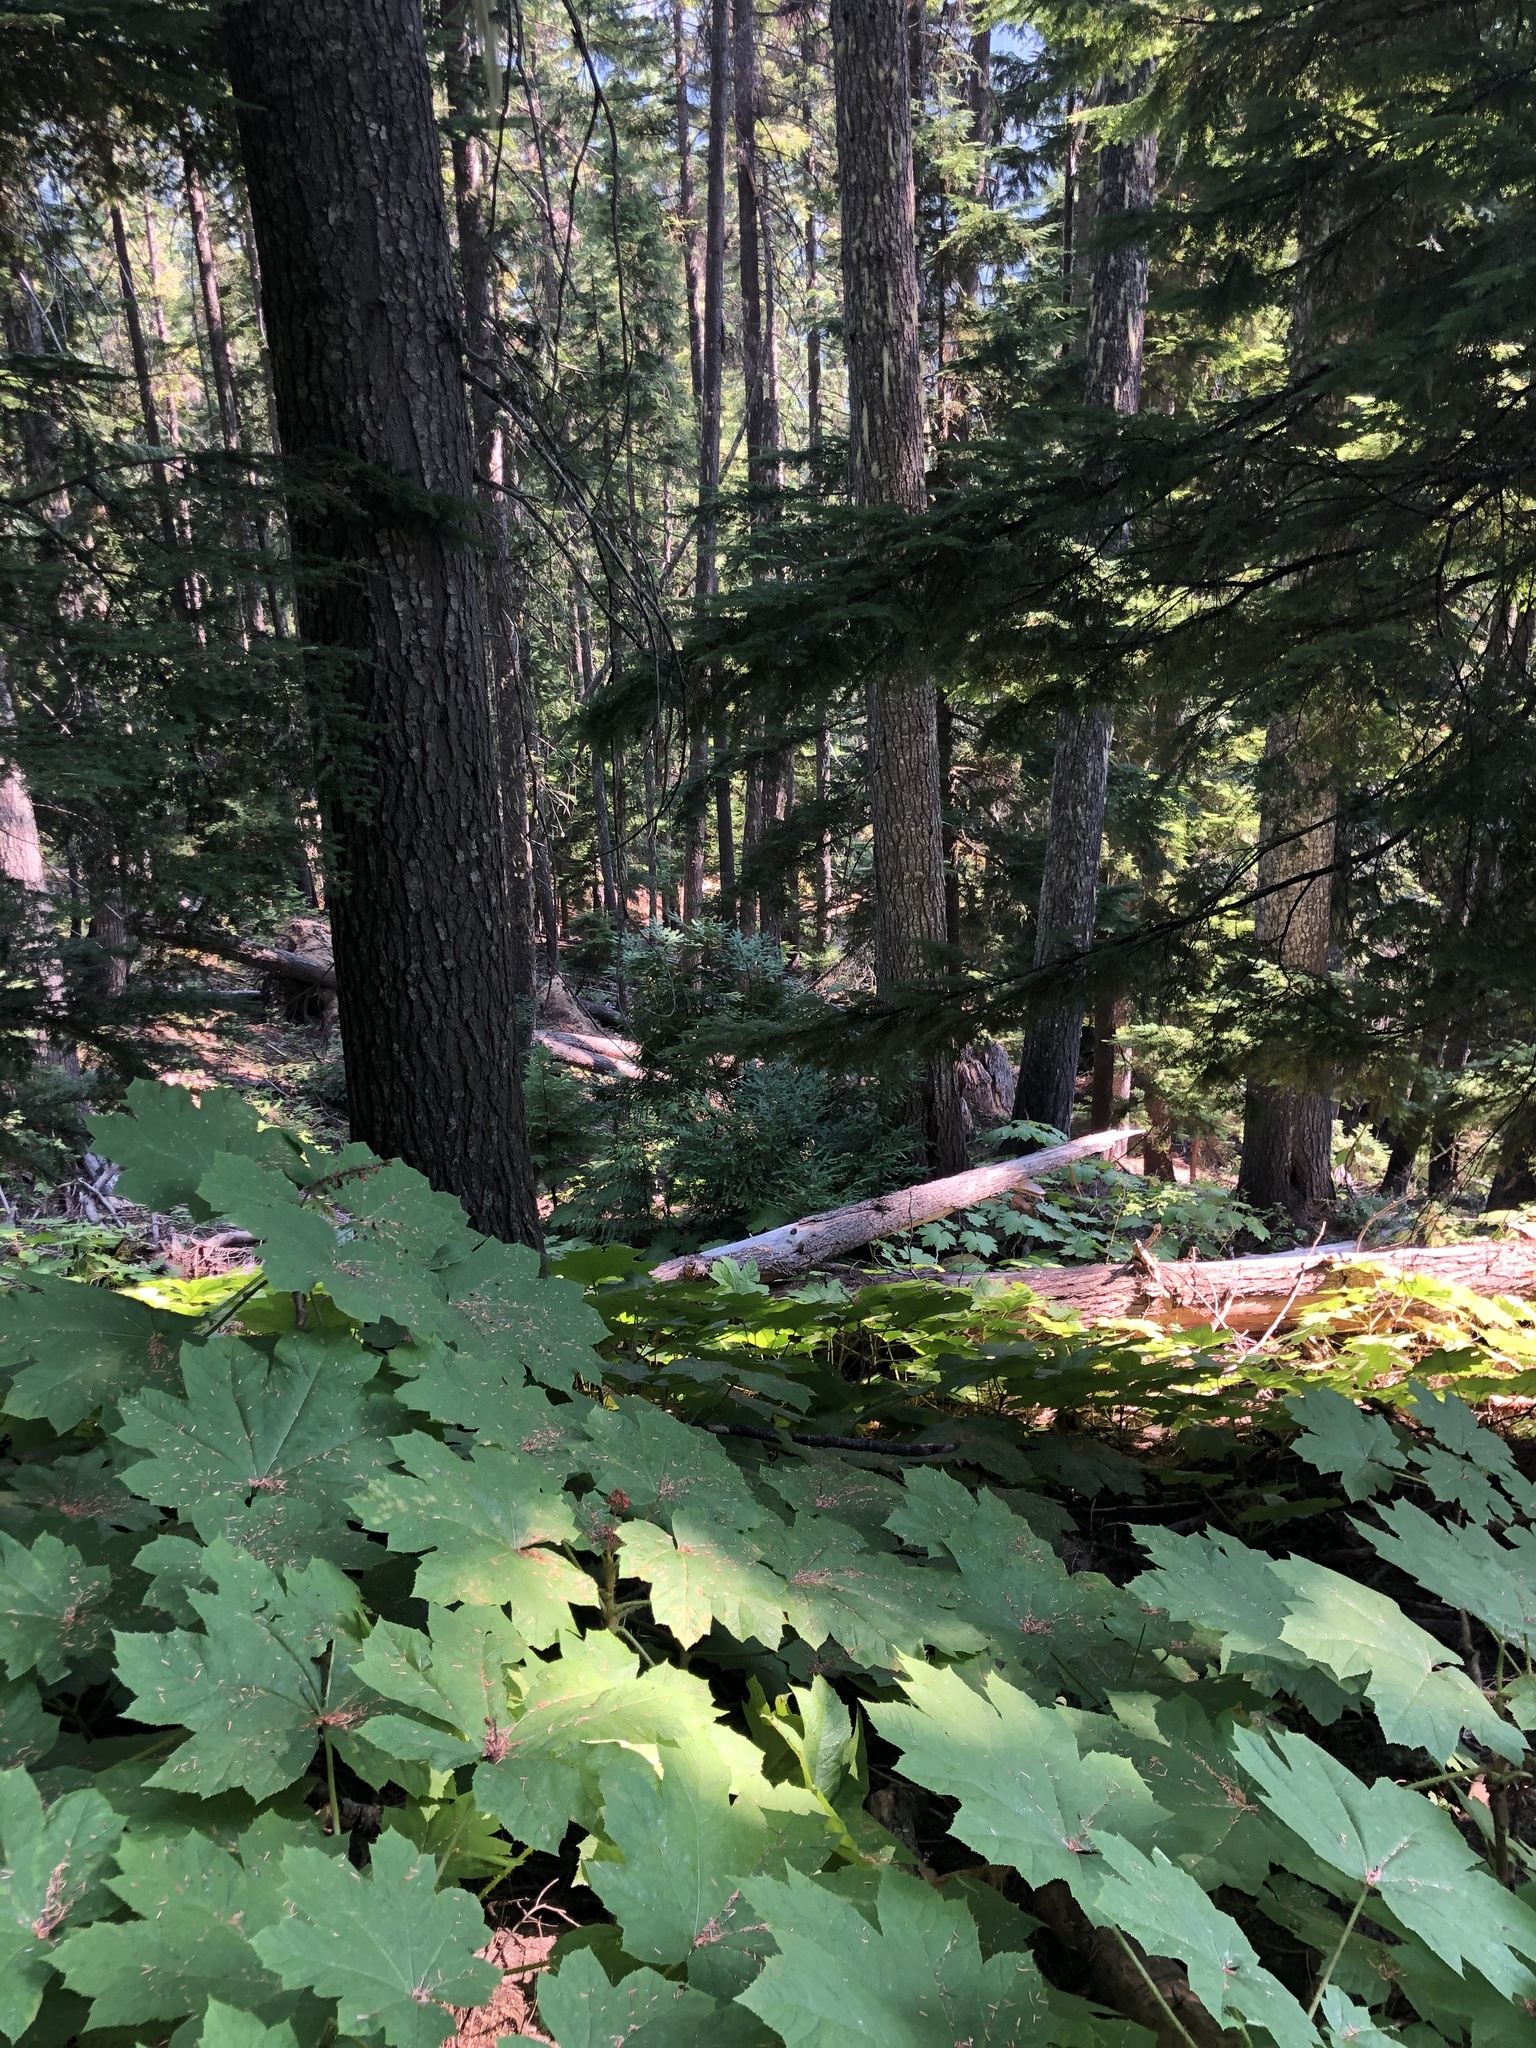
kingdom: Plantae
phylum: Tracheophyta
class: Magnoliopsida
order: Apiales
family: Araliaceae
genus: Oplopanax
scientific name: Oplopanax horridus
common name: Devil's walking-stick
